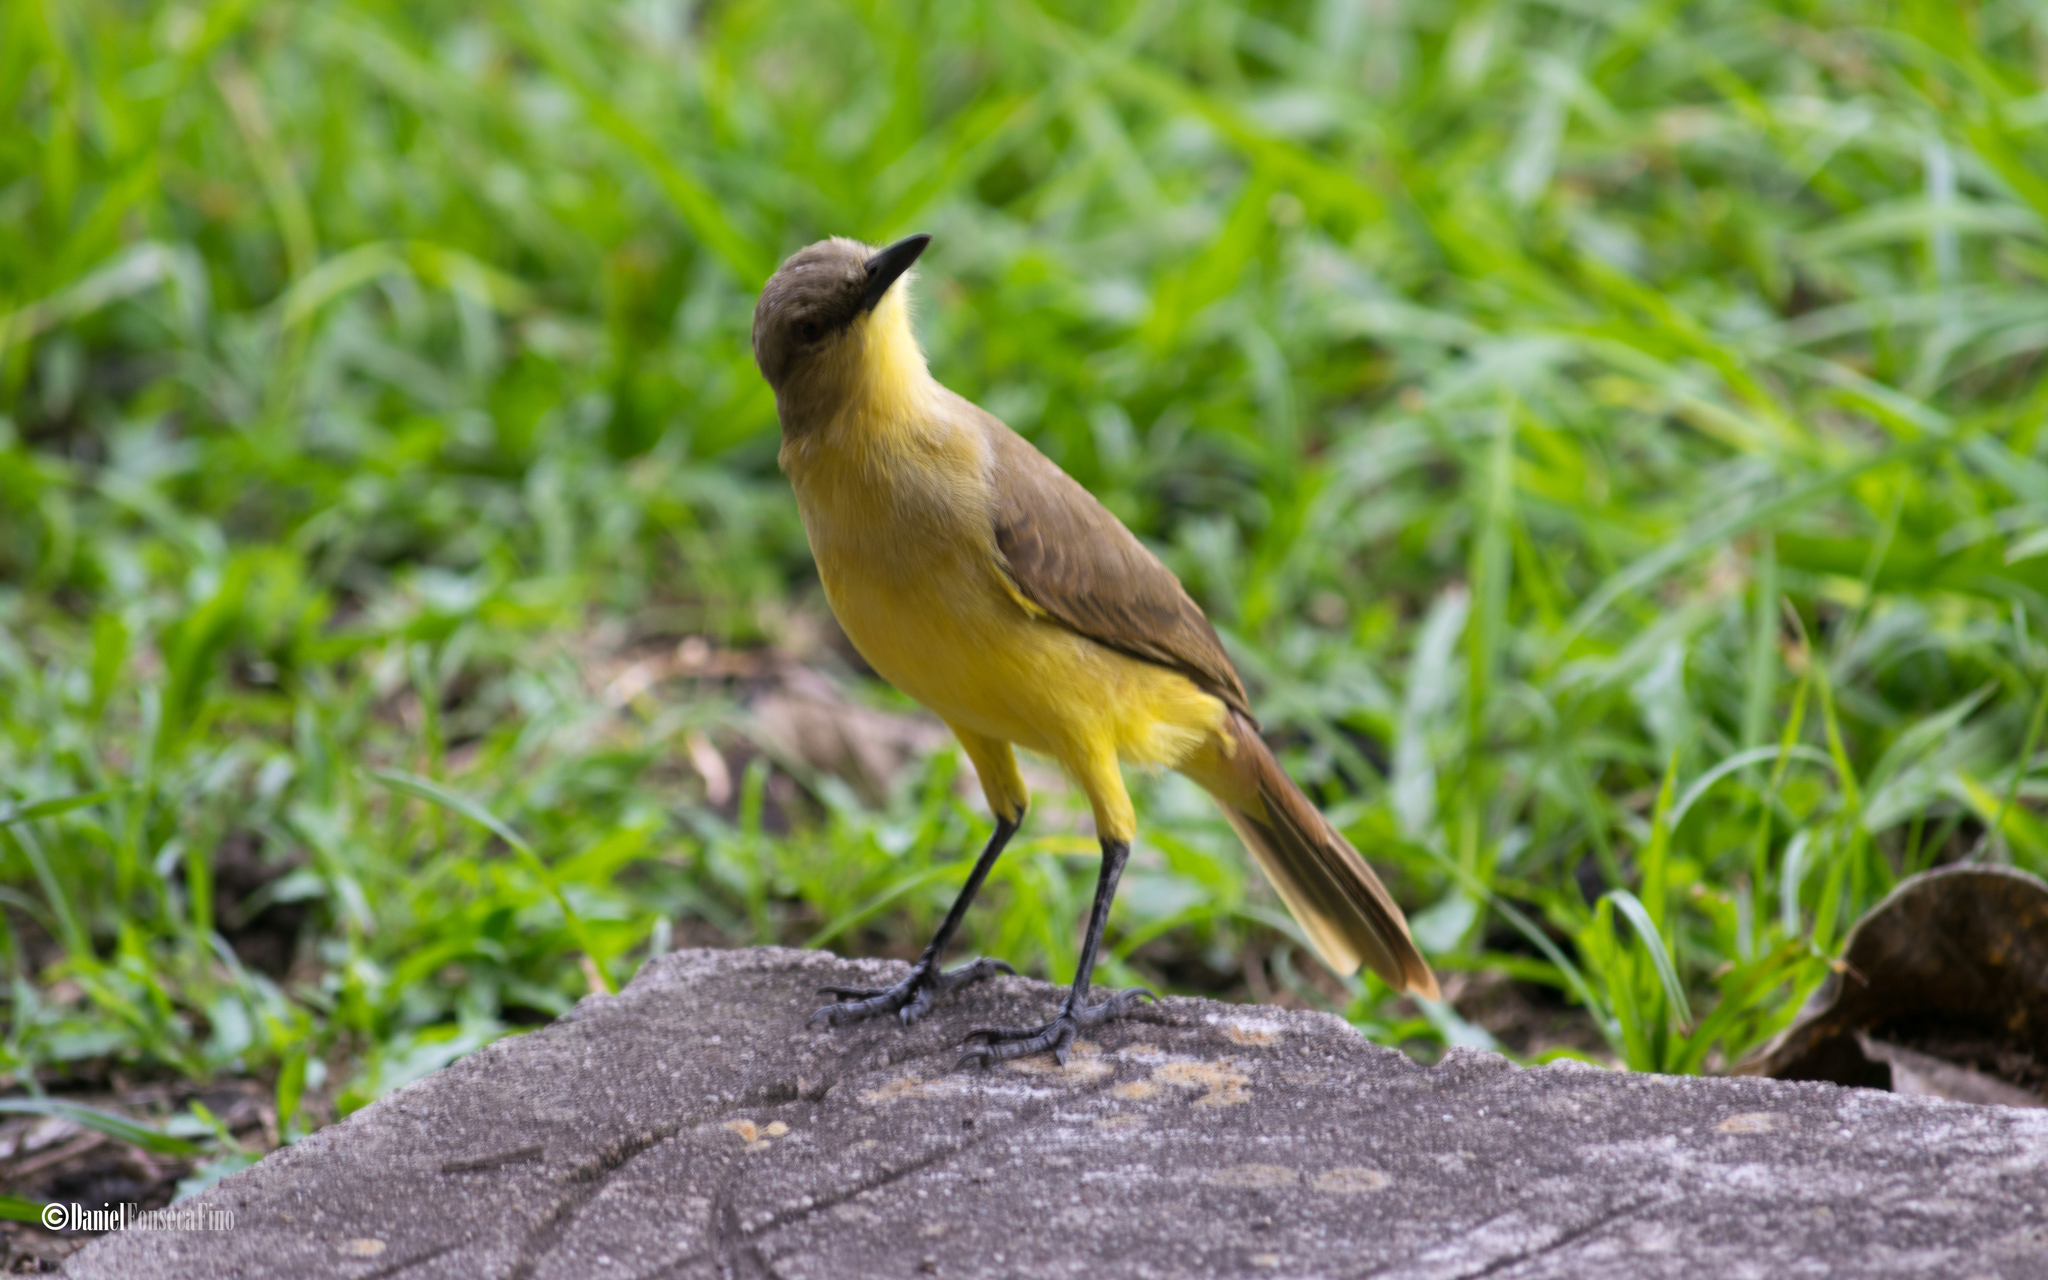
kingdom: Animalia
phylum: Chordata
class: Aves
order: Passeriformes
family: Tyrannidae
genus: Machetornis
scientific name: Machetornis rixosa
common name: Cattle tyrant
